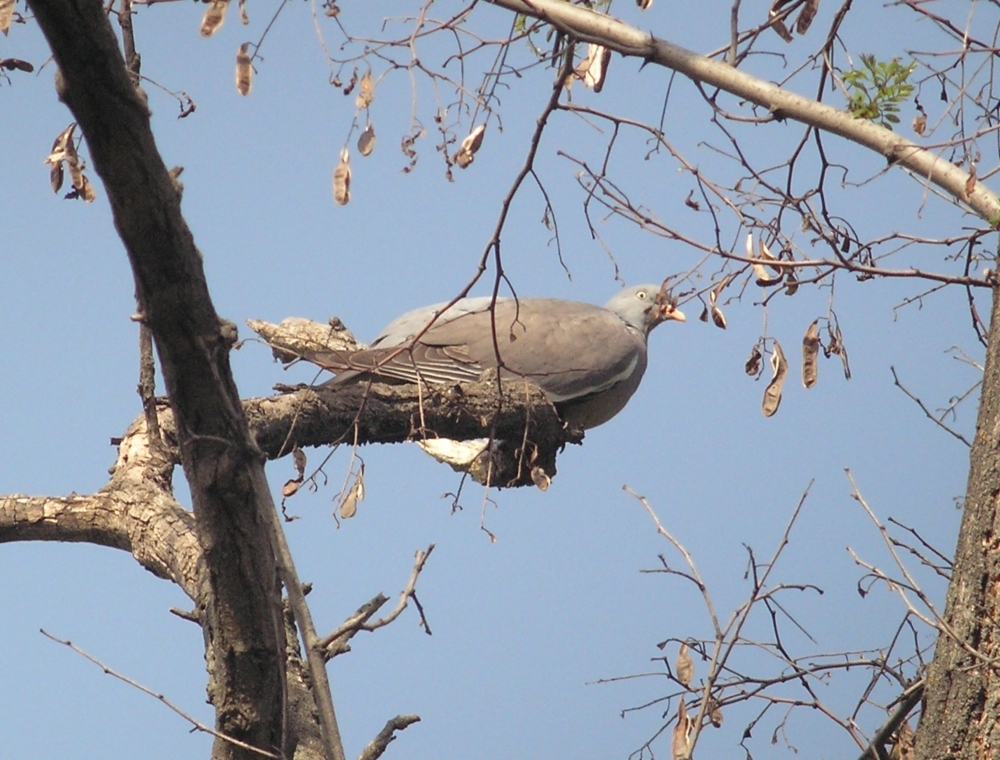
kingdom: Animalia
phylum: Chordata
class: Aves
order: Columbiformes
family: Columbidae
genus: Columba
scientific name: Columba palumbus
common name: Common wood pigeon
